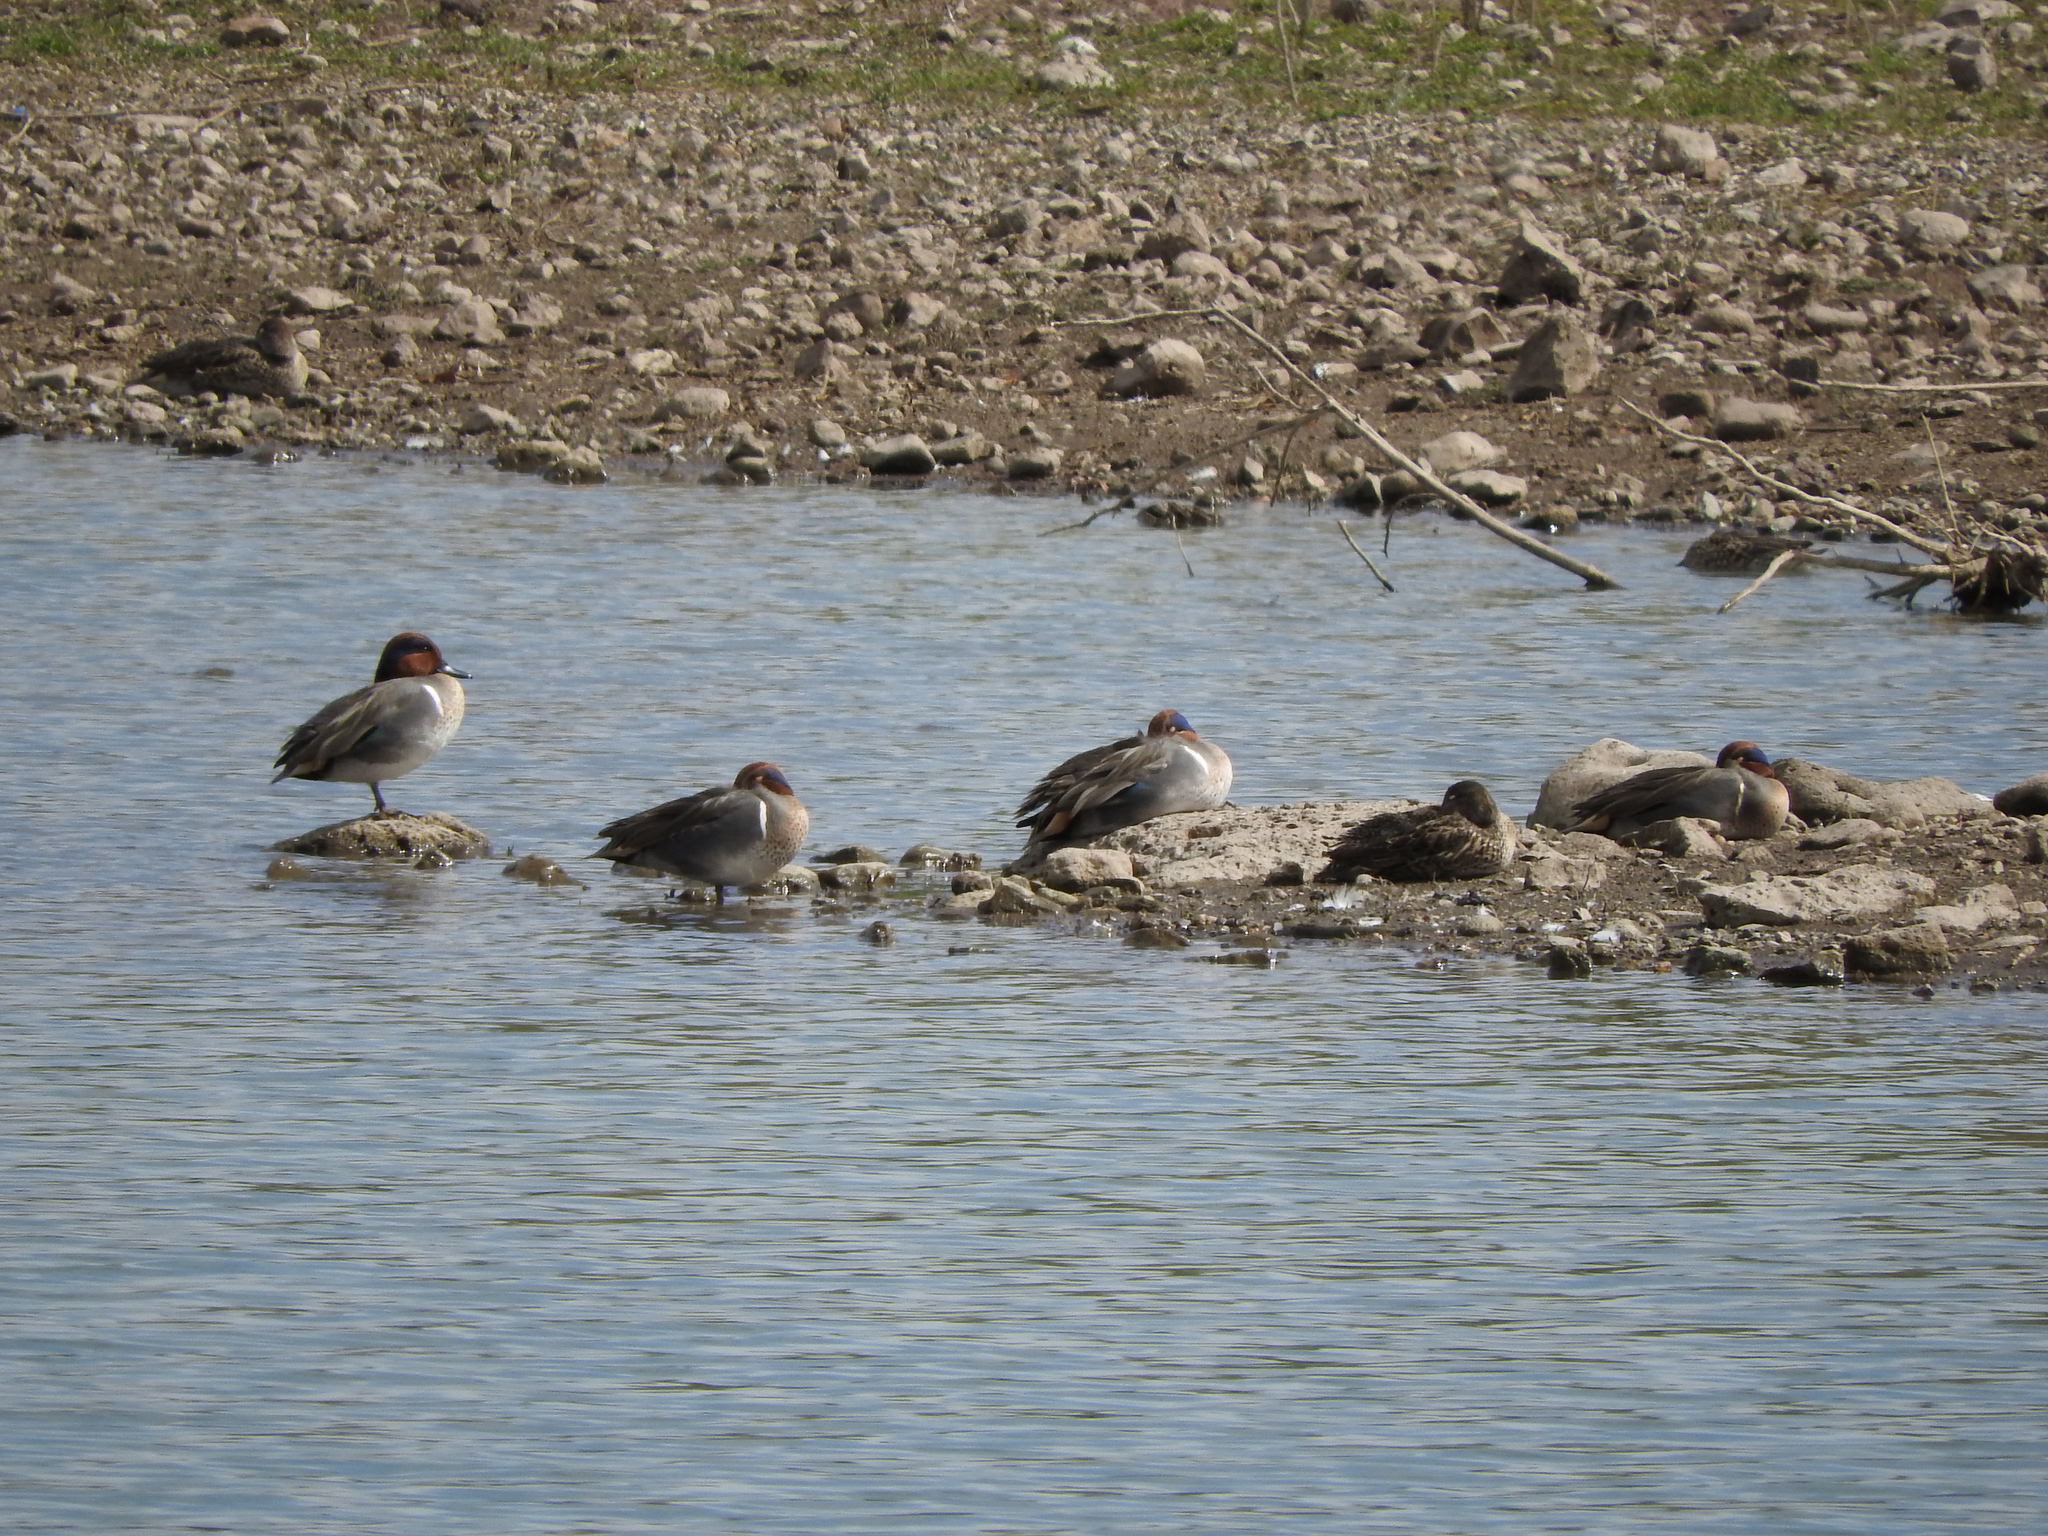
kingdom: Animalia
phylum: Chordata
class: Aves
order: Anseriformes
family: Anatidae
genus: Anas
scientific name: Anas crecca
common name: Eurasian teal
